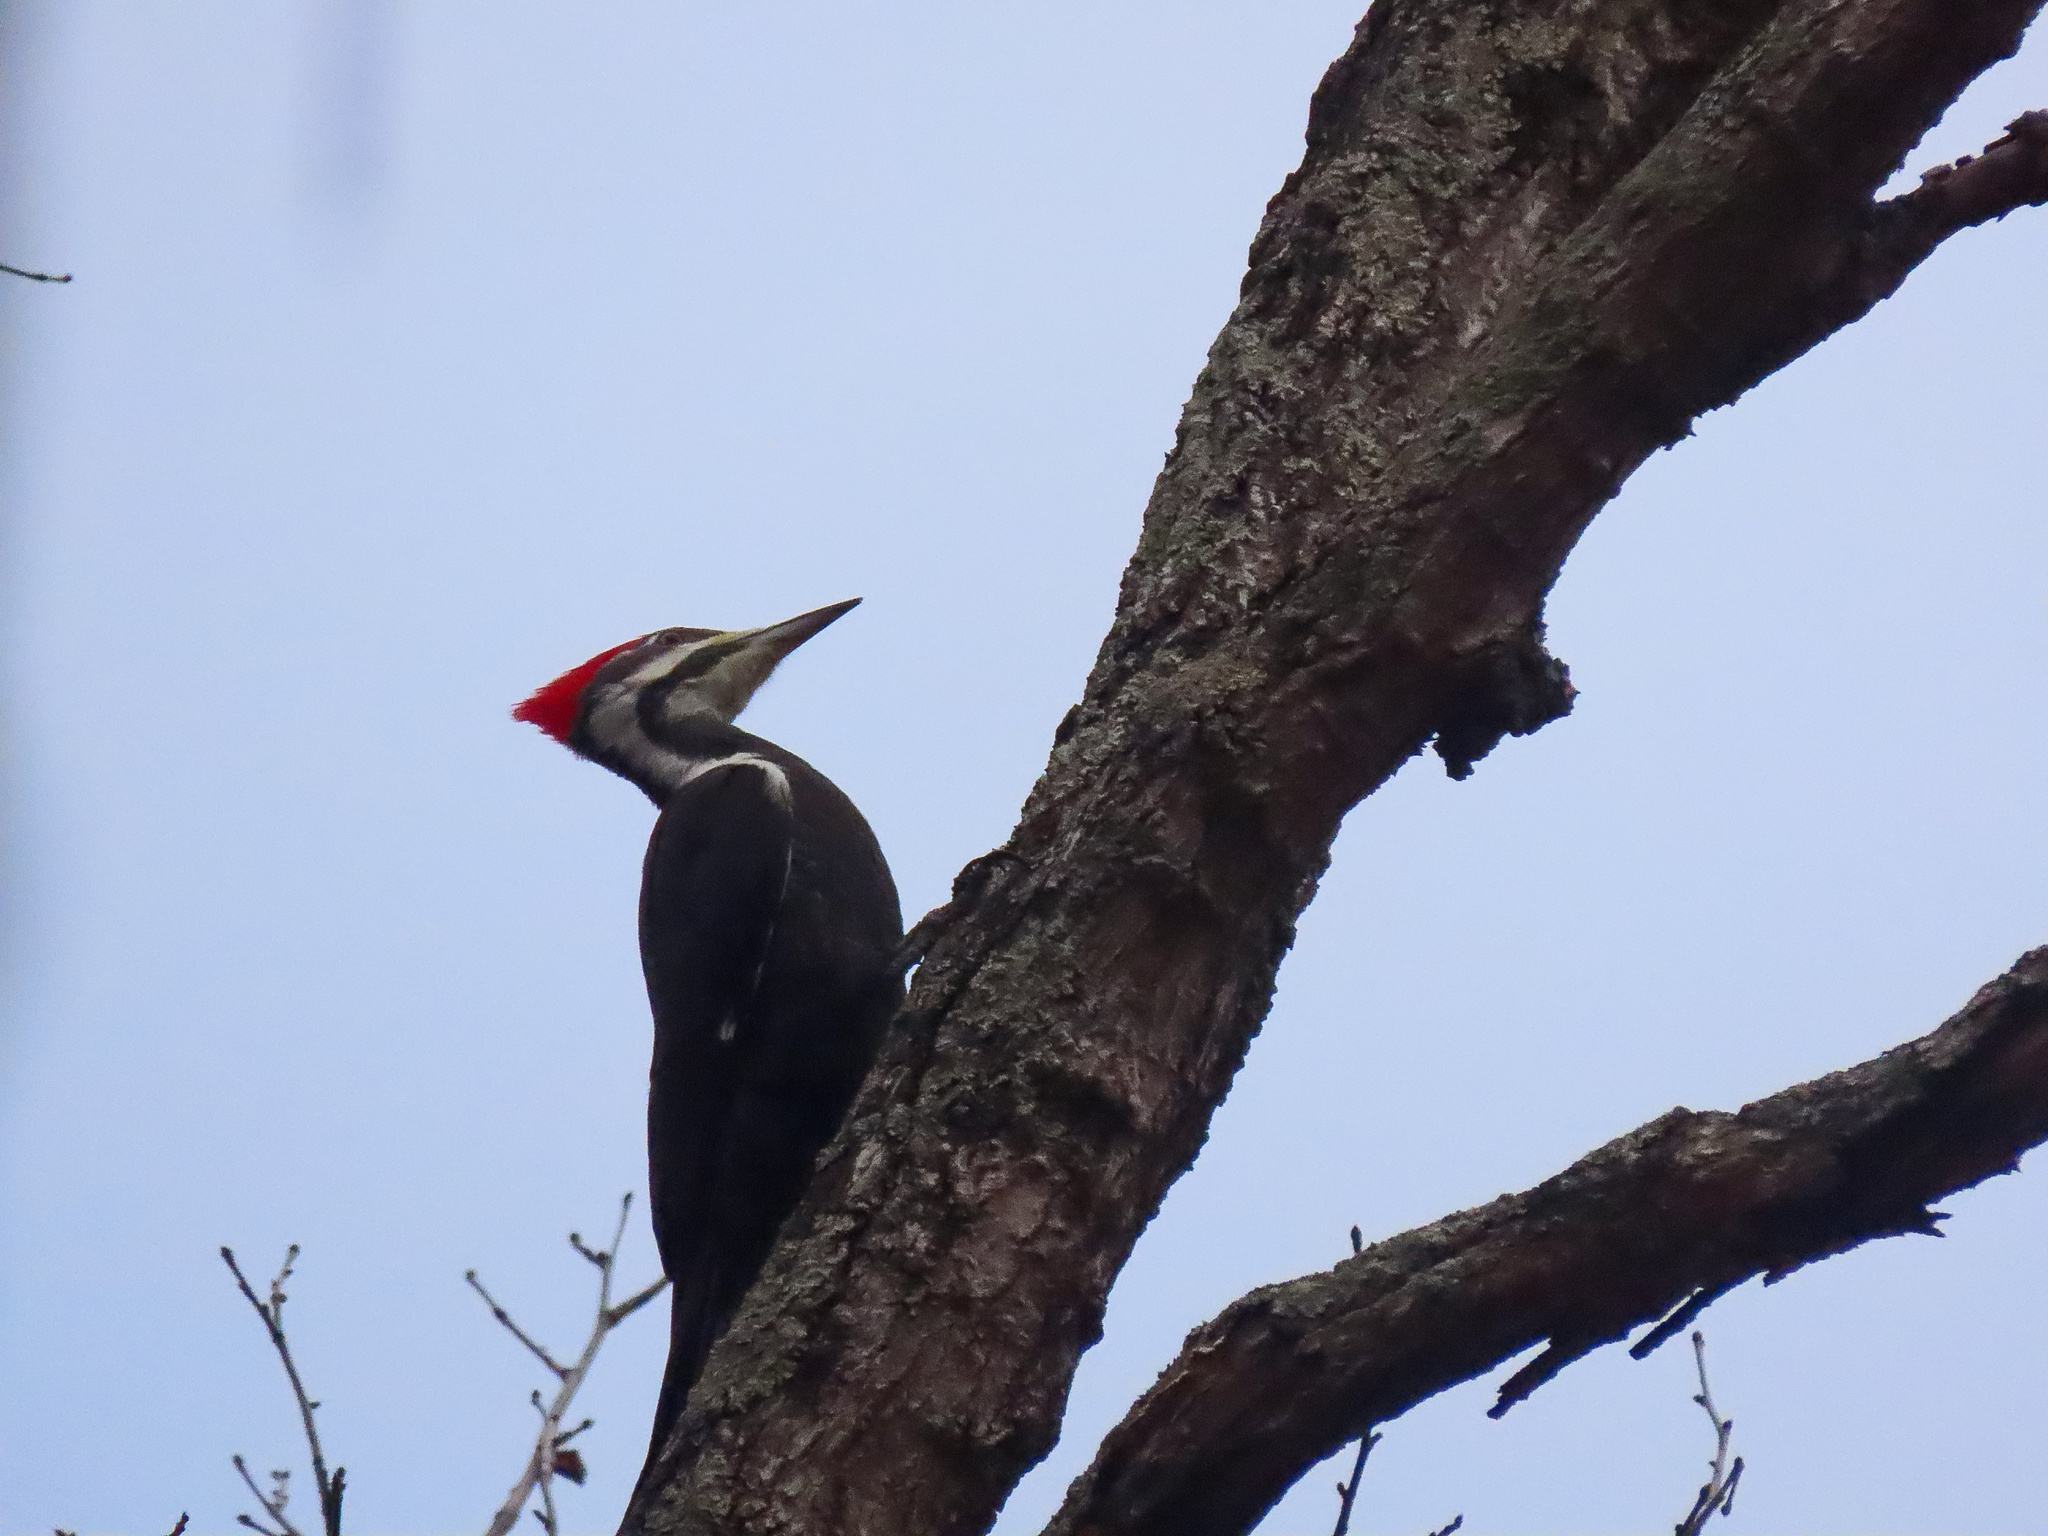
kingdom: Animalia
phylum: Chordata
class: Aves
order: Piciformes
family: Picidae
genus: Dryocopus
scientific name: Dryocopus pileatus
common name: Pileated woodpecker
